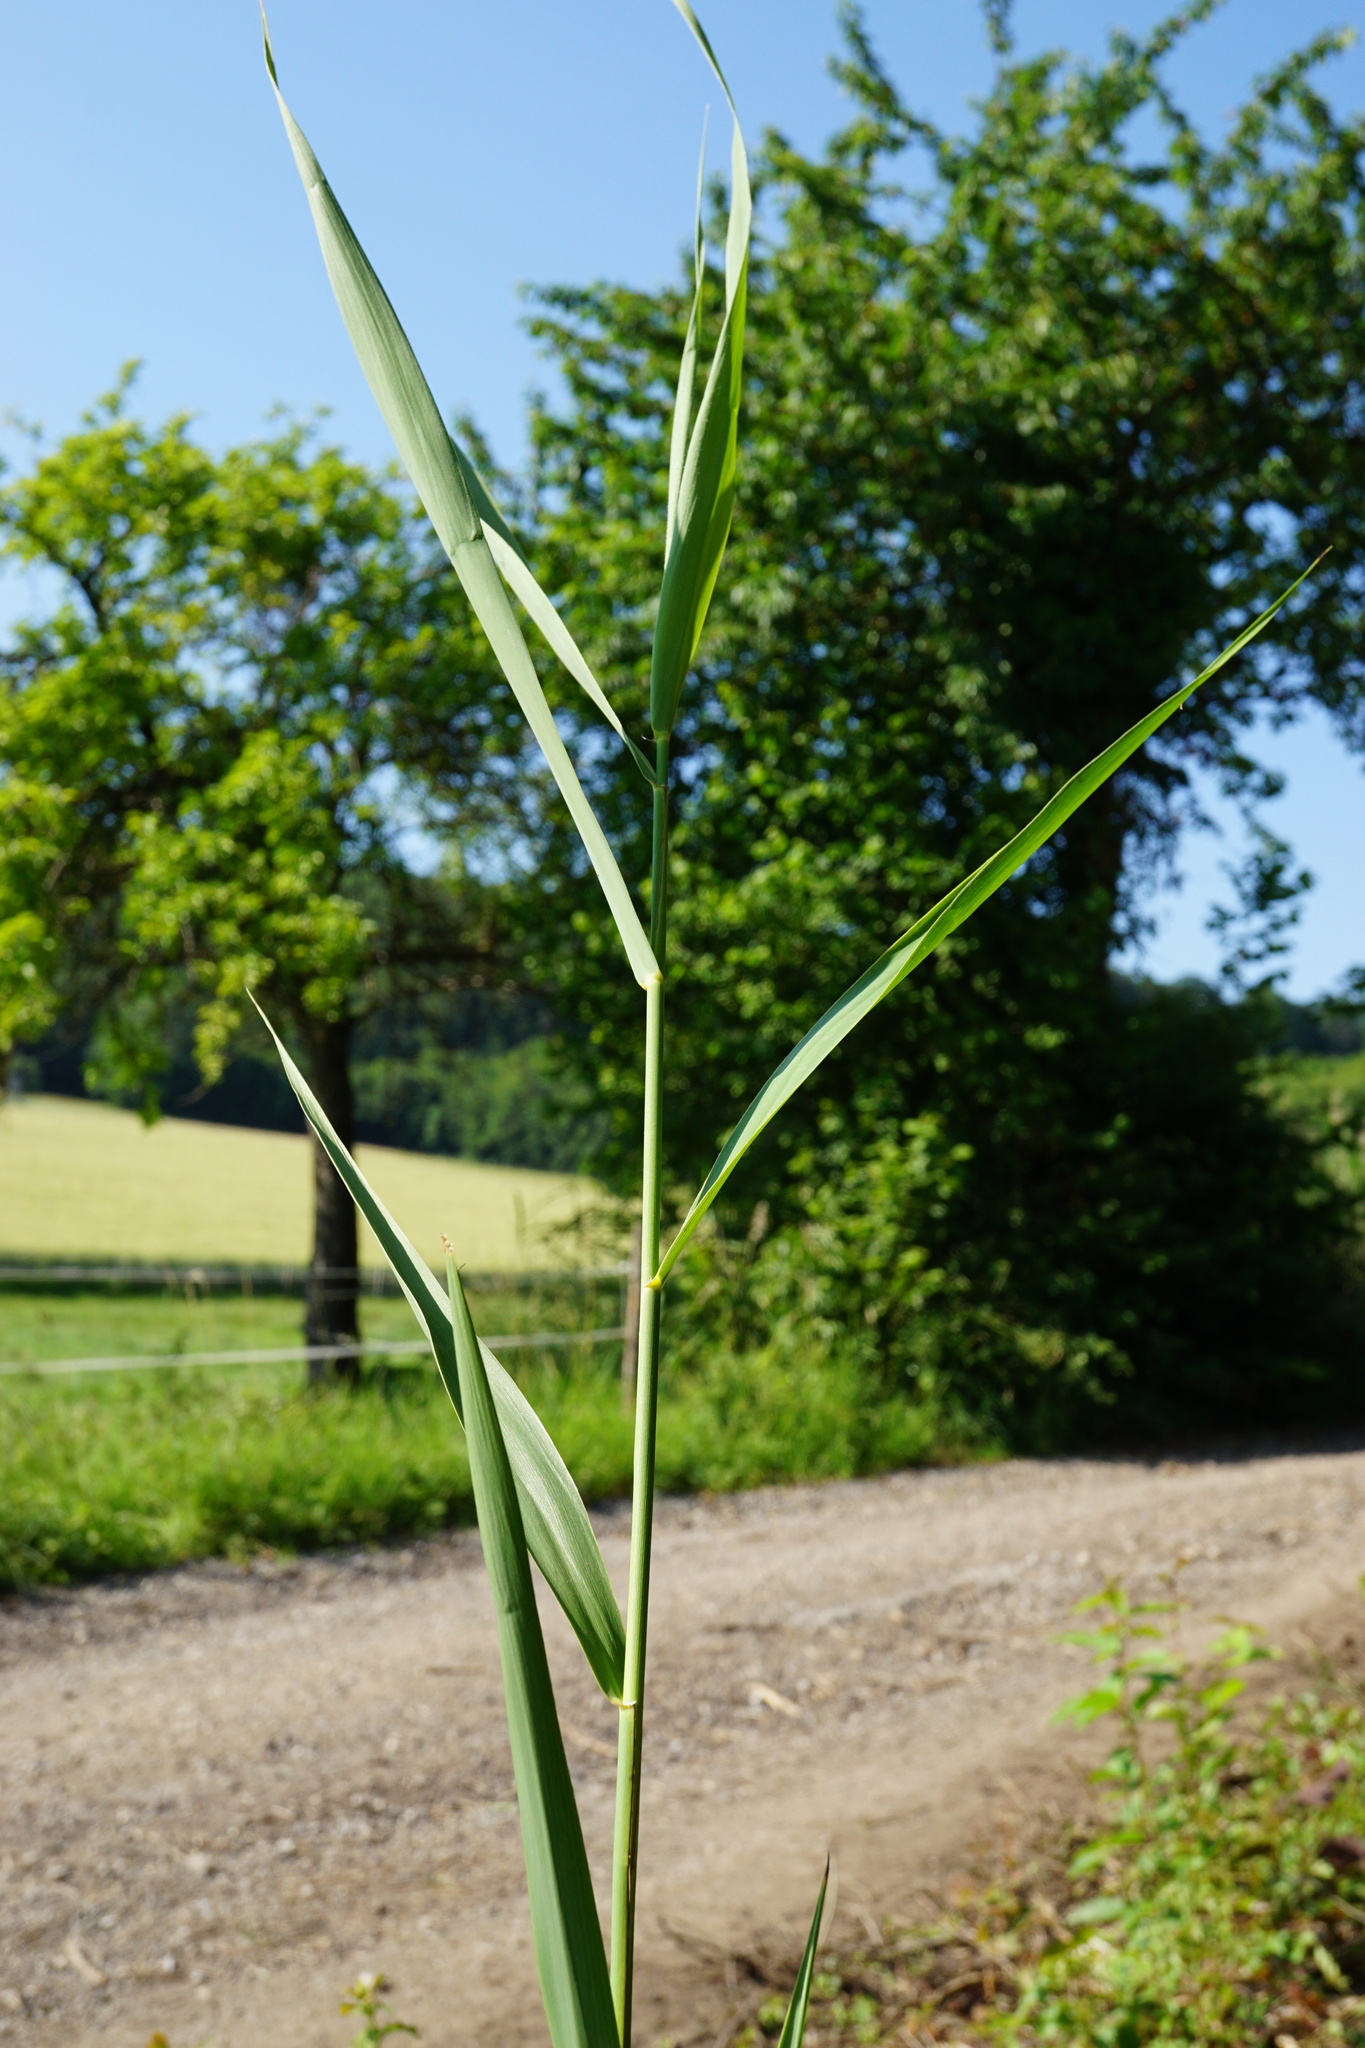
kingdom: Plantae
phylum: Tracheophyta
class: Liliopsida
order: Poales
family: Poaceae
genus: Phragmites
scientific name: Phragmites australis
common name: Common reed
